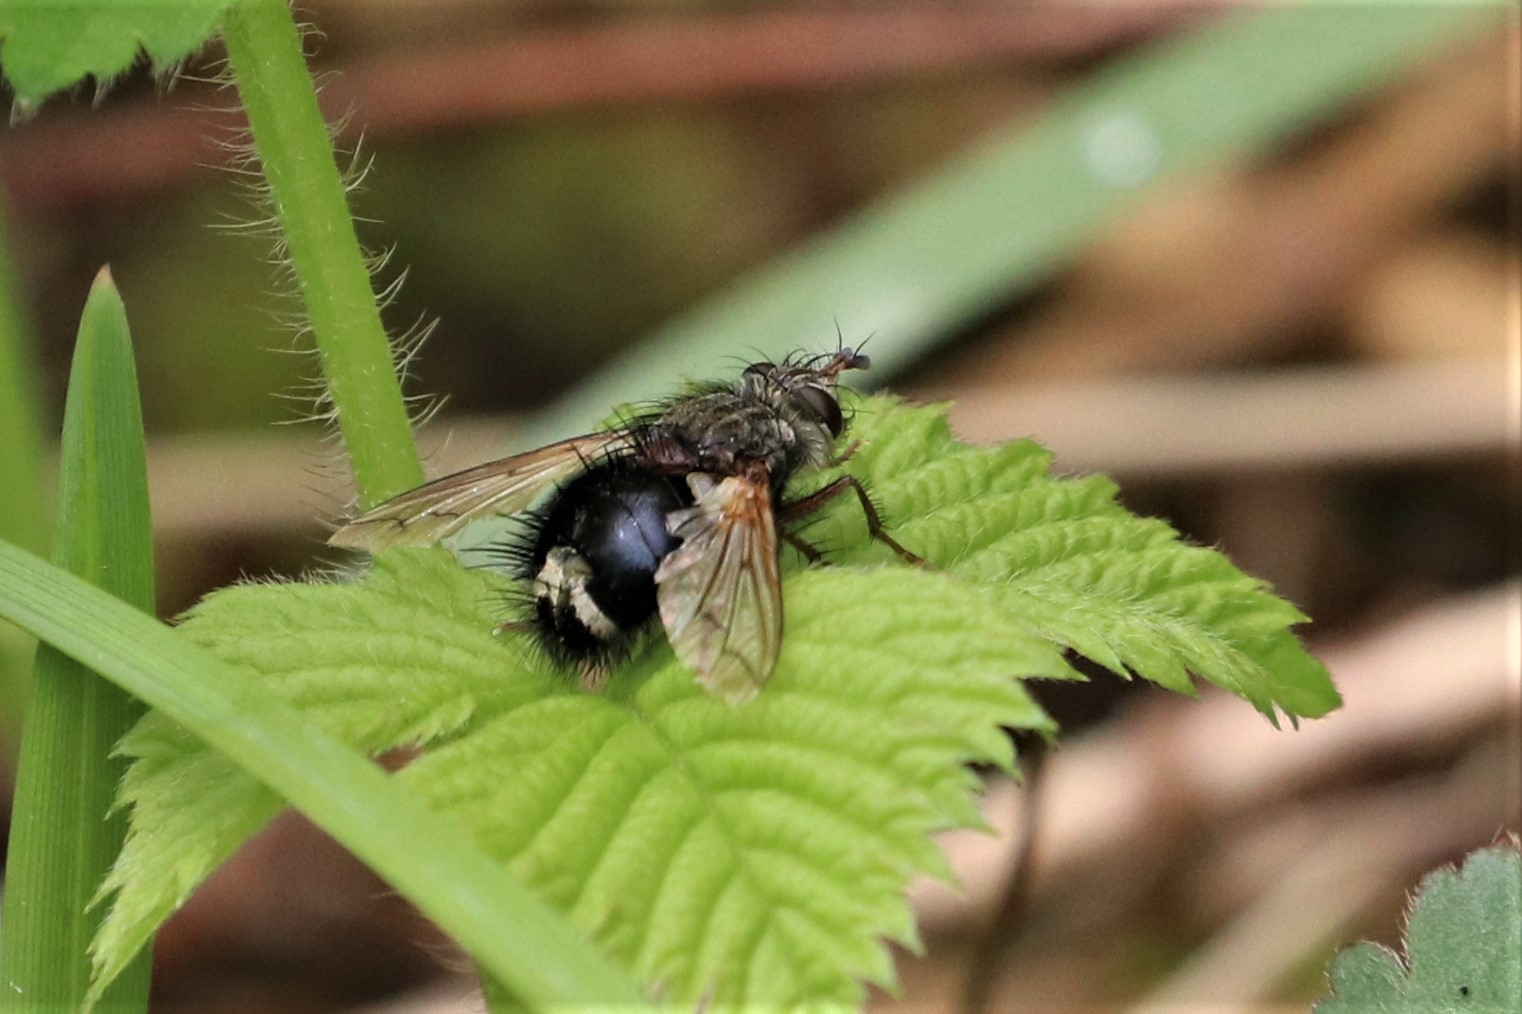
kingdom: Animalia
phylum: Arthropoda
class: Insecta
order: Diptera
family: Tachinidae
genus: Epalpus
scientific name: Epalpus signifer
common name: Early tachinid fly
